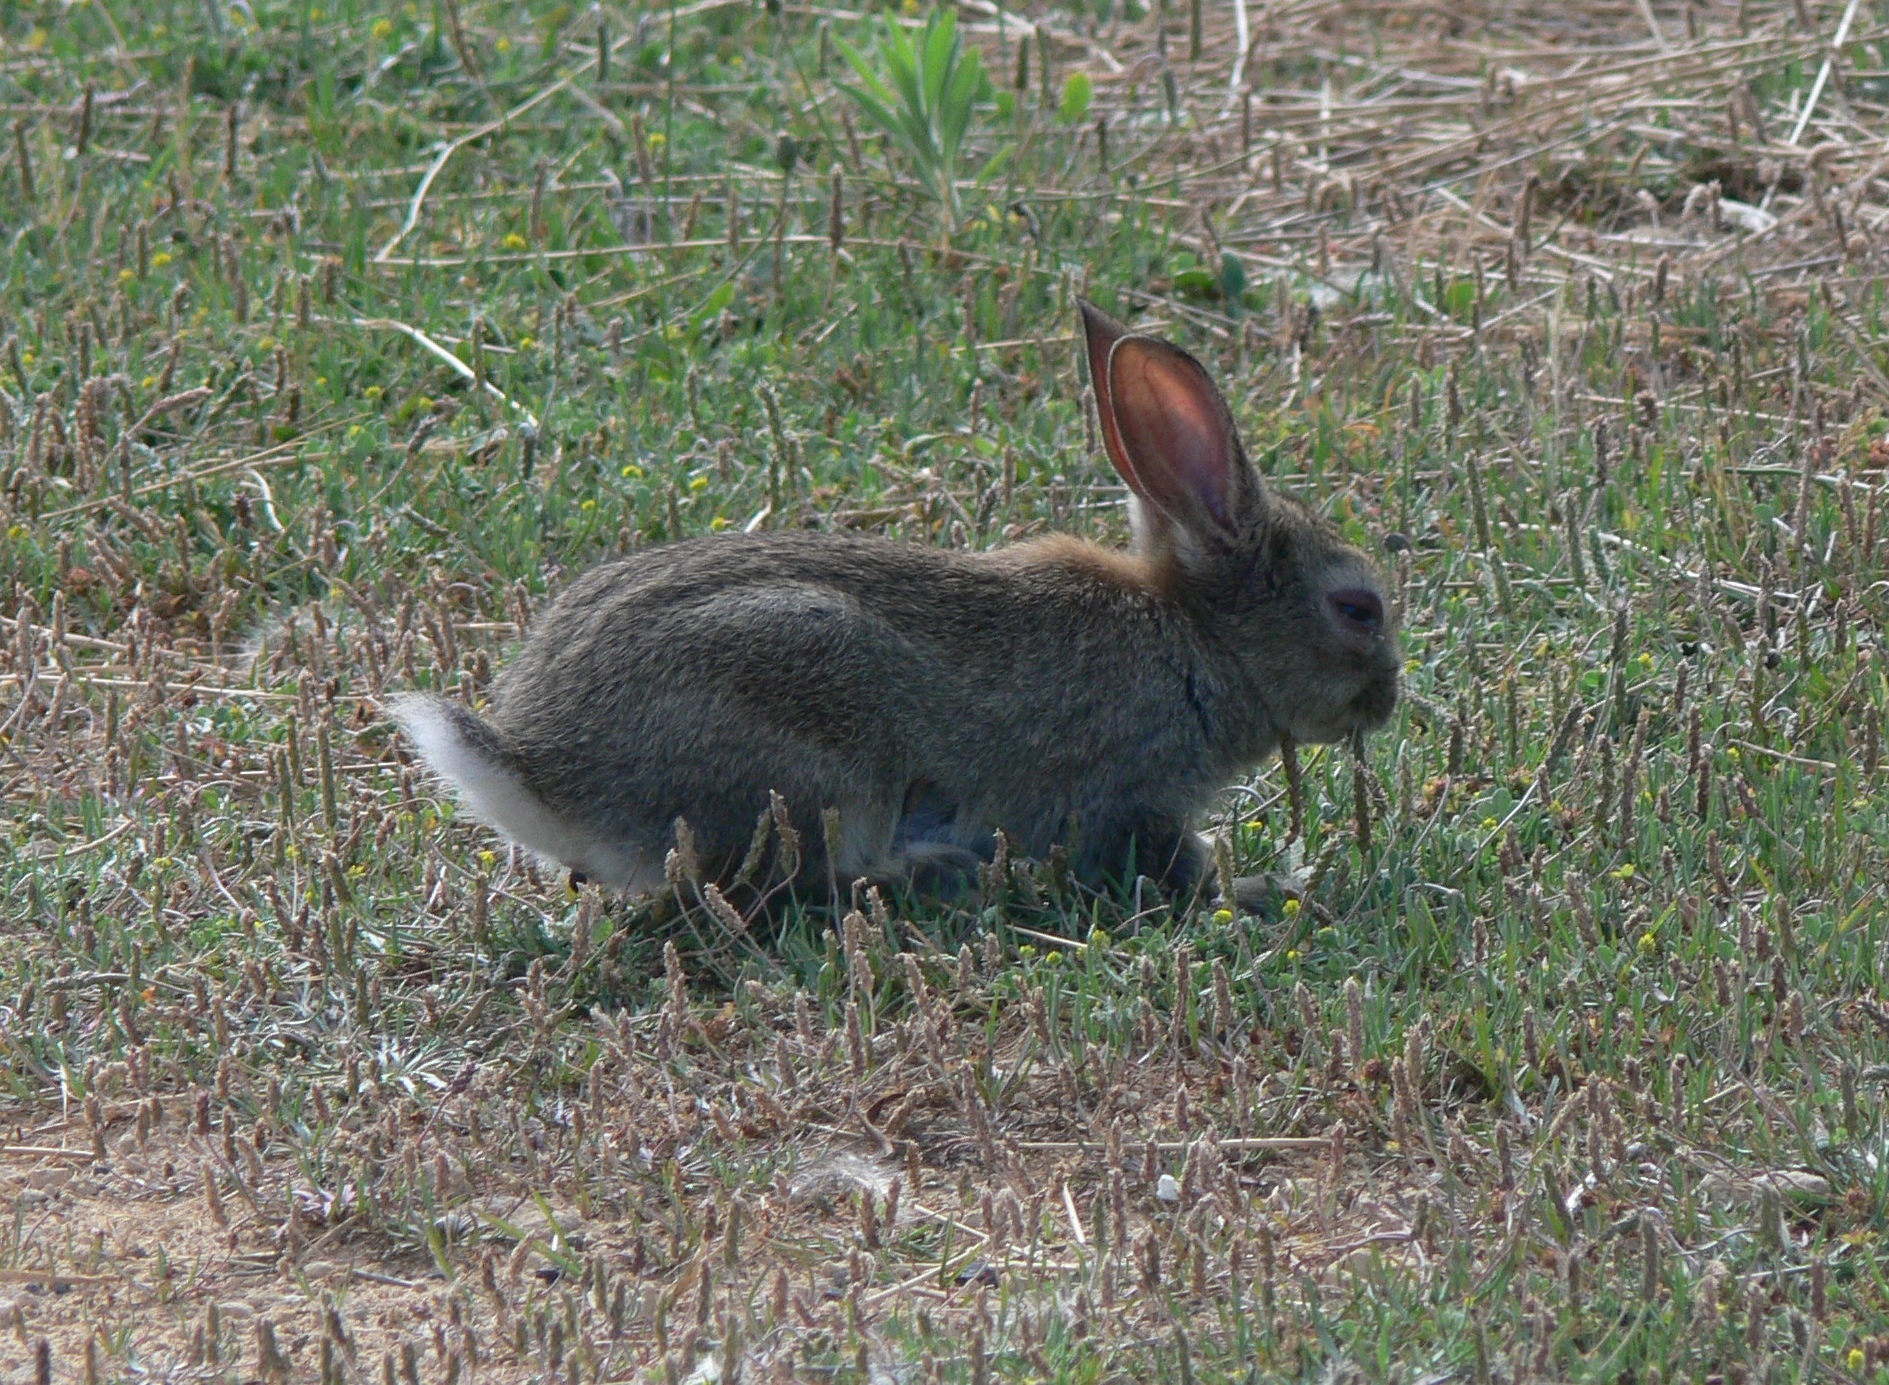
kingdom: Animalia
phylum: Chordata
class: Mammalia
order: Lagomorpha
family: Leporidae
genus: Oryctolagus
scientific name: Oryctolagus cuniculus
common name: European rabbit
